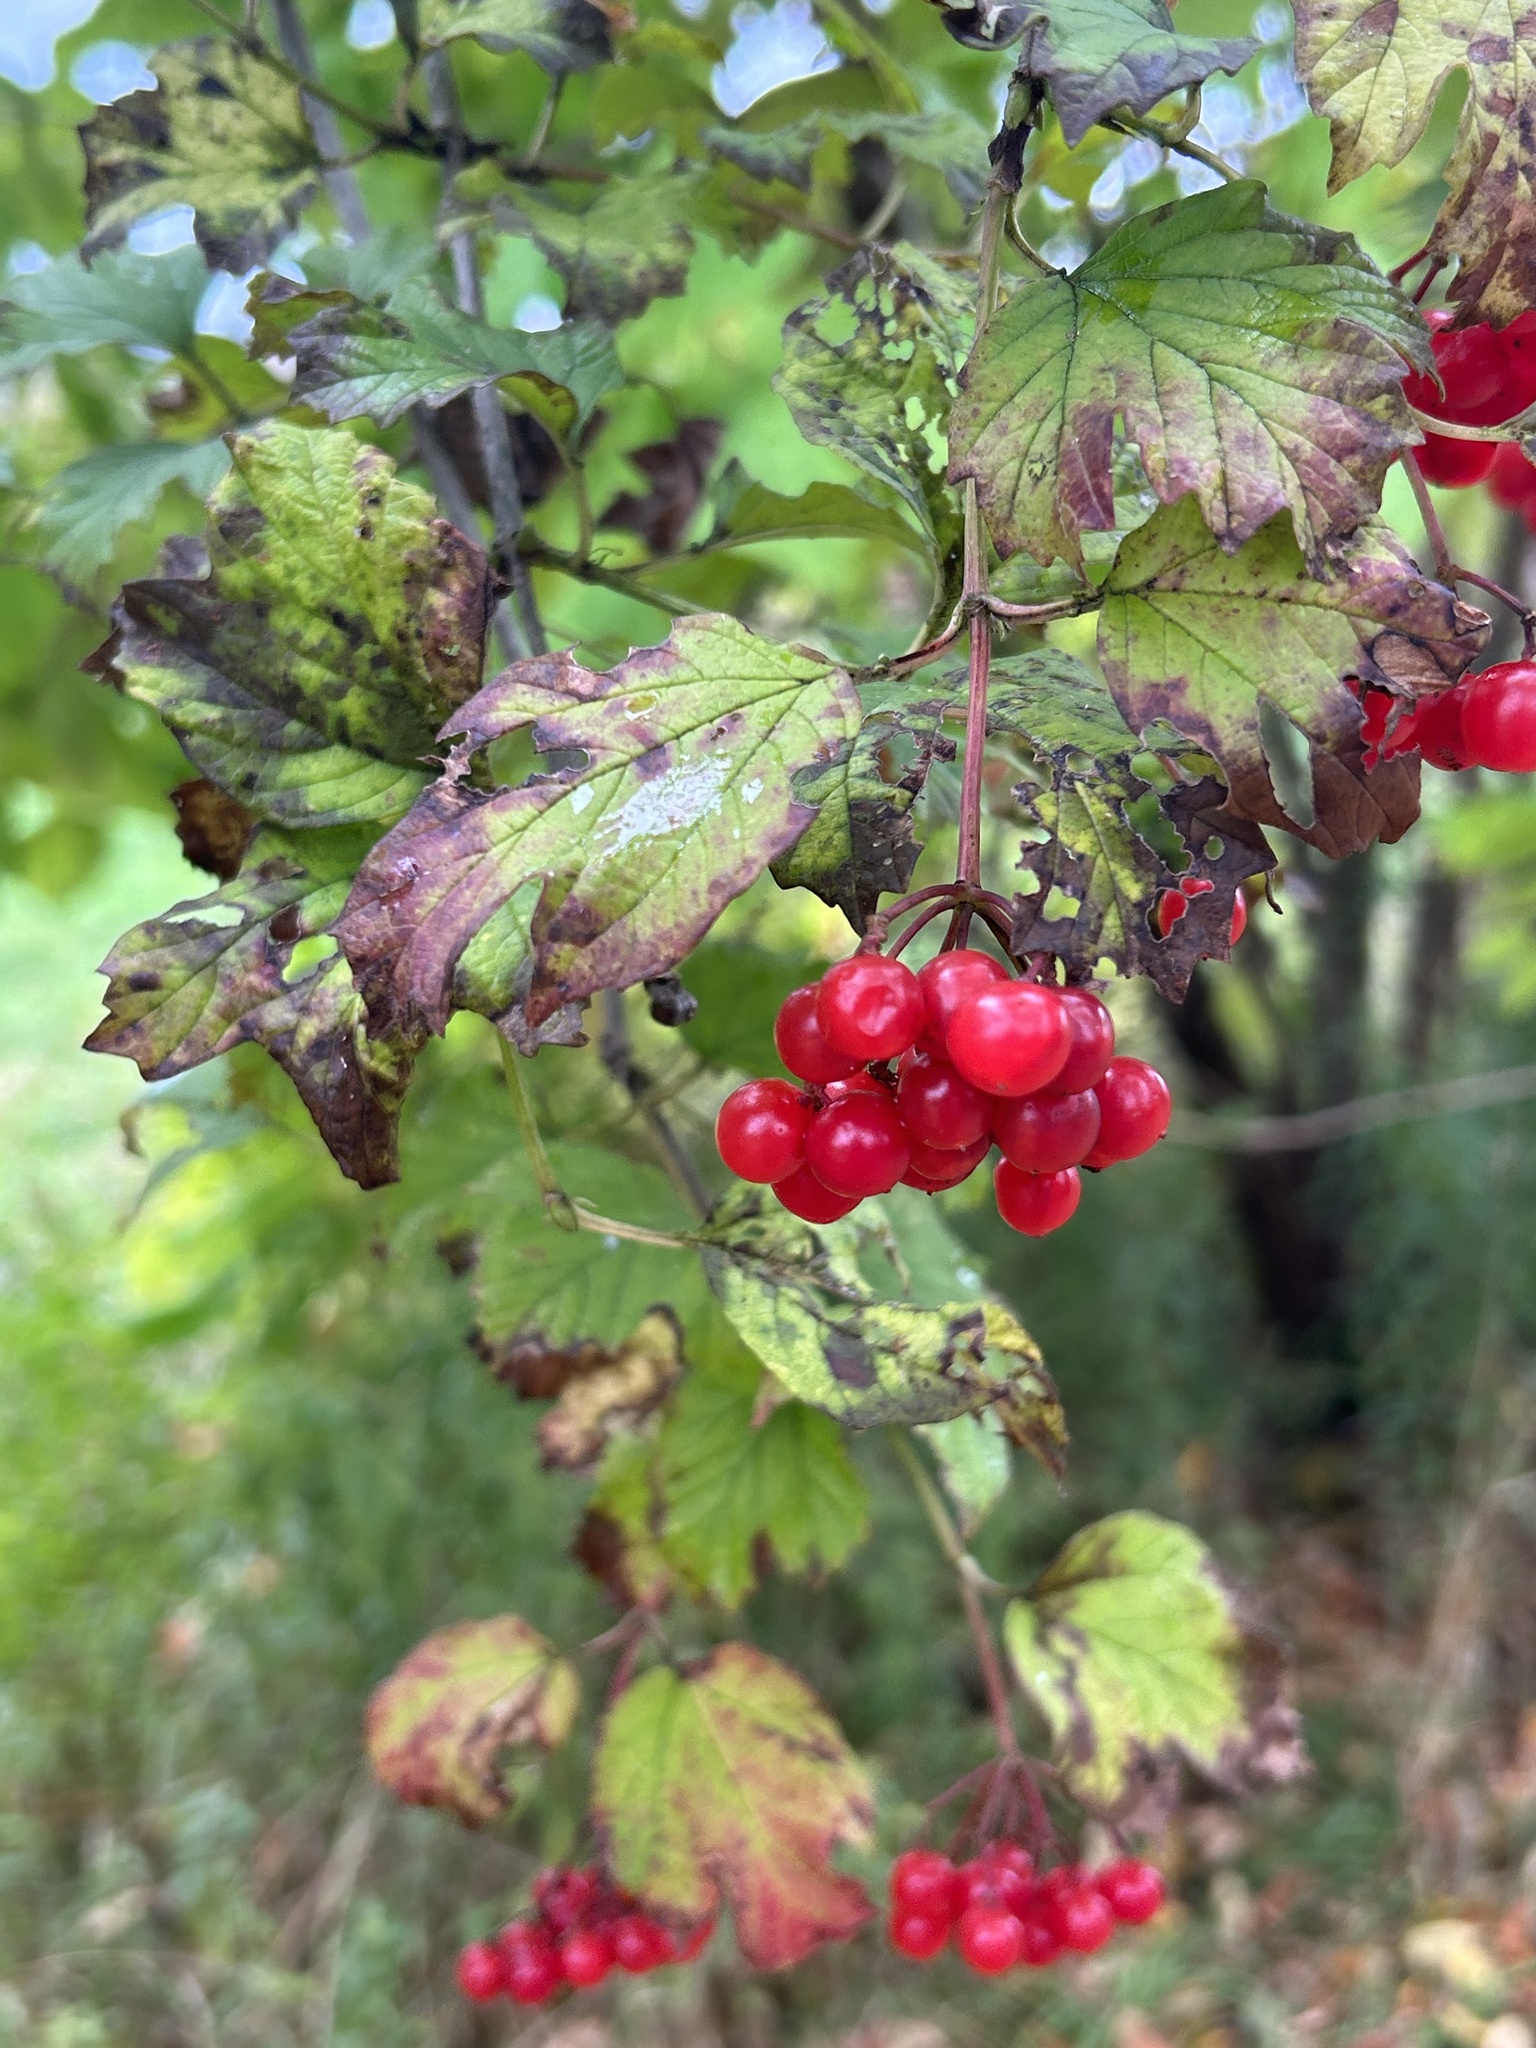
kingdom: Plantae
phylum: Tracheophyta
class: Magnoliopsida
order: Dipsacales
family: Viburnaceae
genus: Viburnum
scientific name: Viburnum opulus
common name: Guelder-rose
